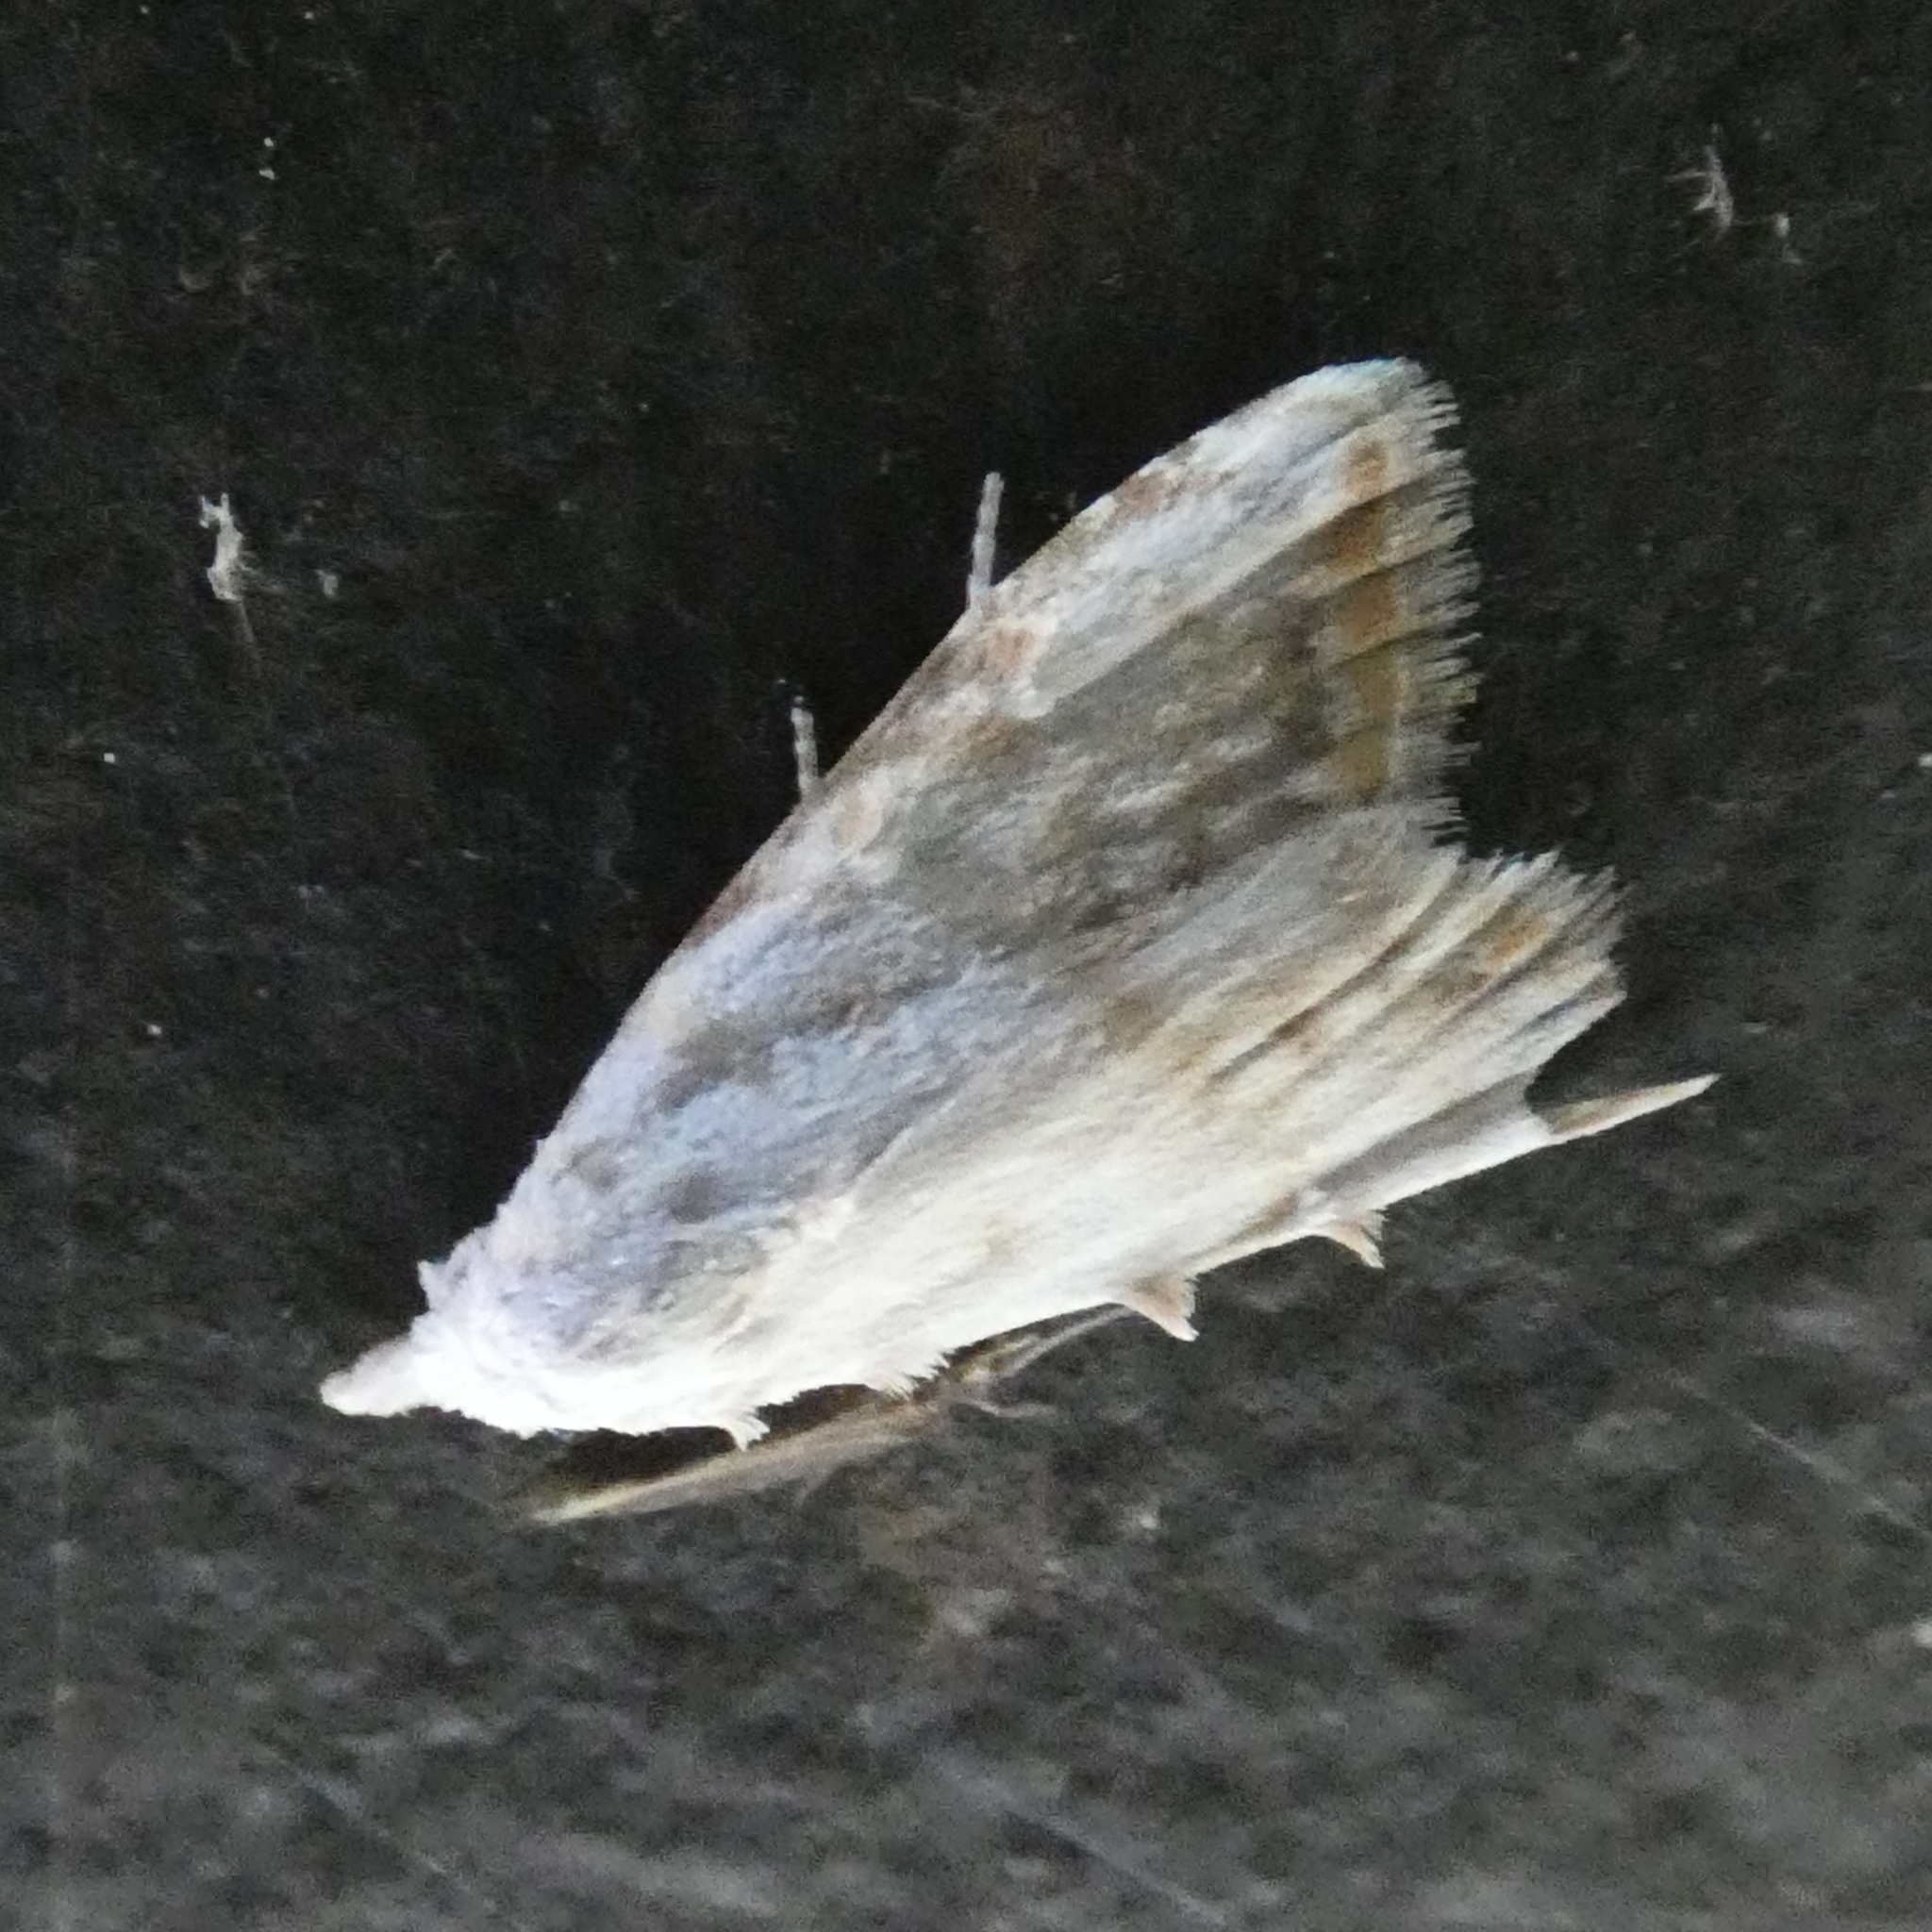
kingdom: Animalia
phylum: Arthropoda
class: Insecta
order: Lepidoptera
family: Nolidae
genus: Nola
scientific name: Nola cereella
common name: Sorghum webworm moth
